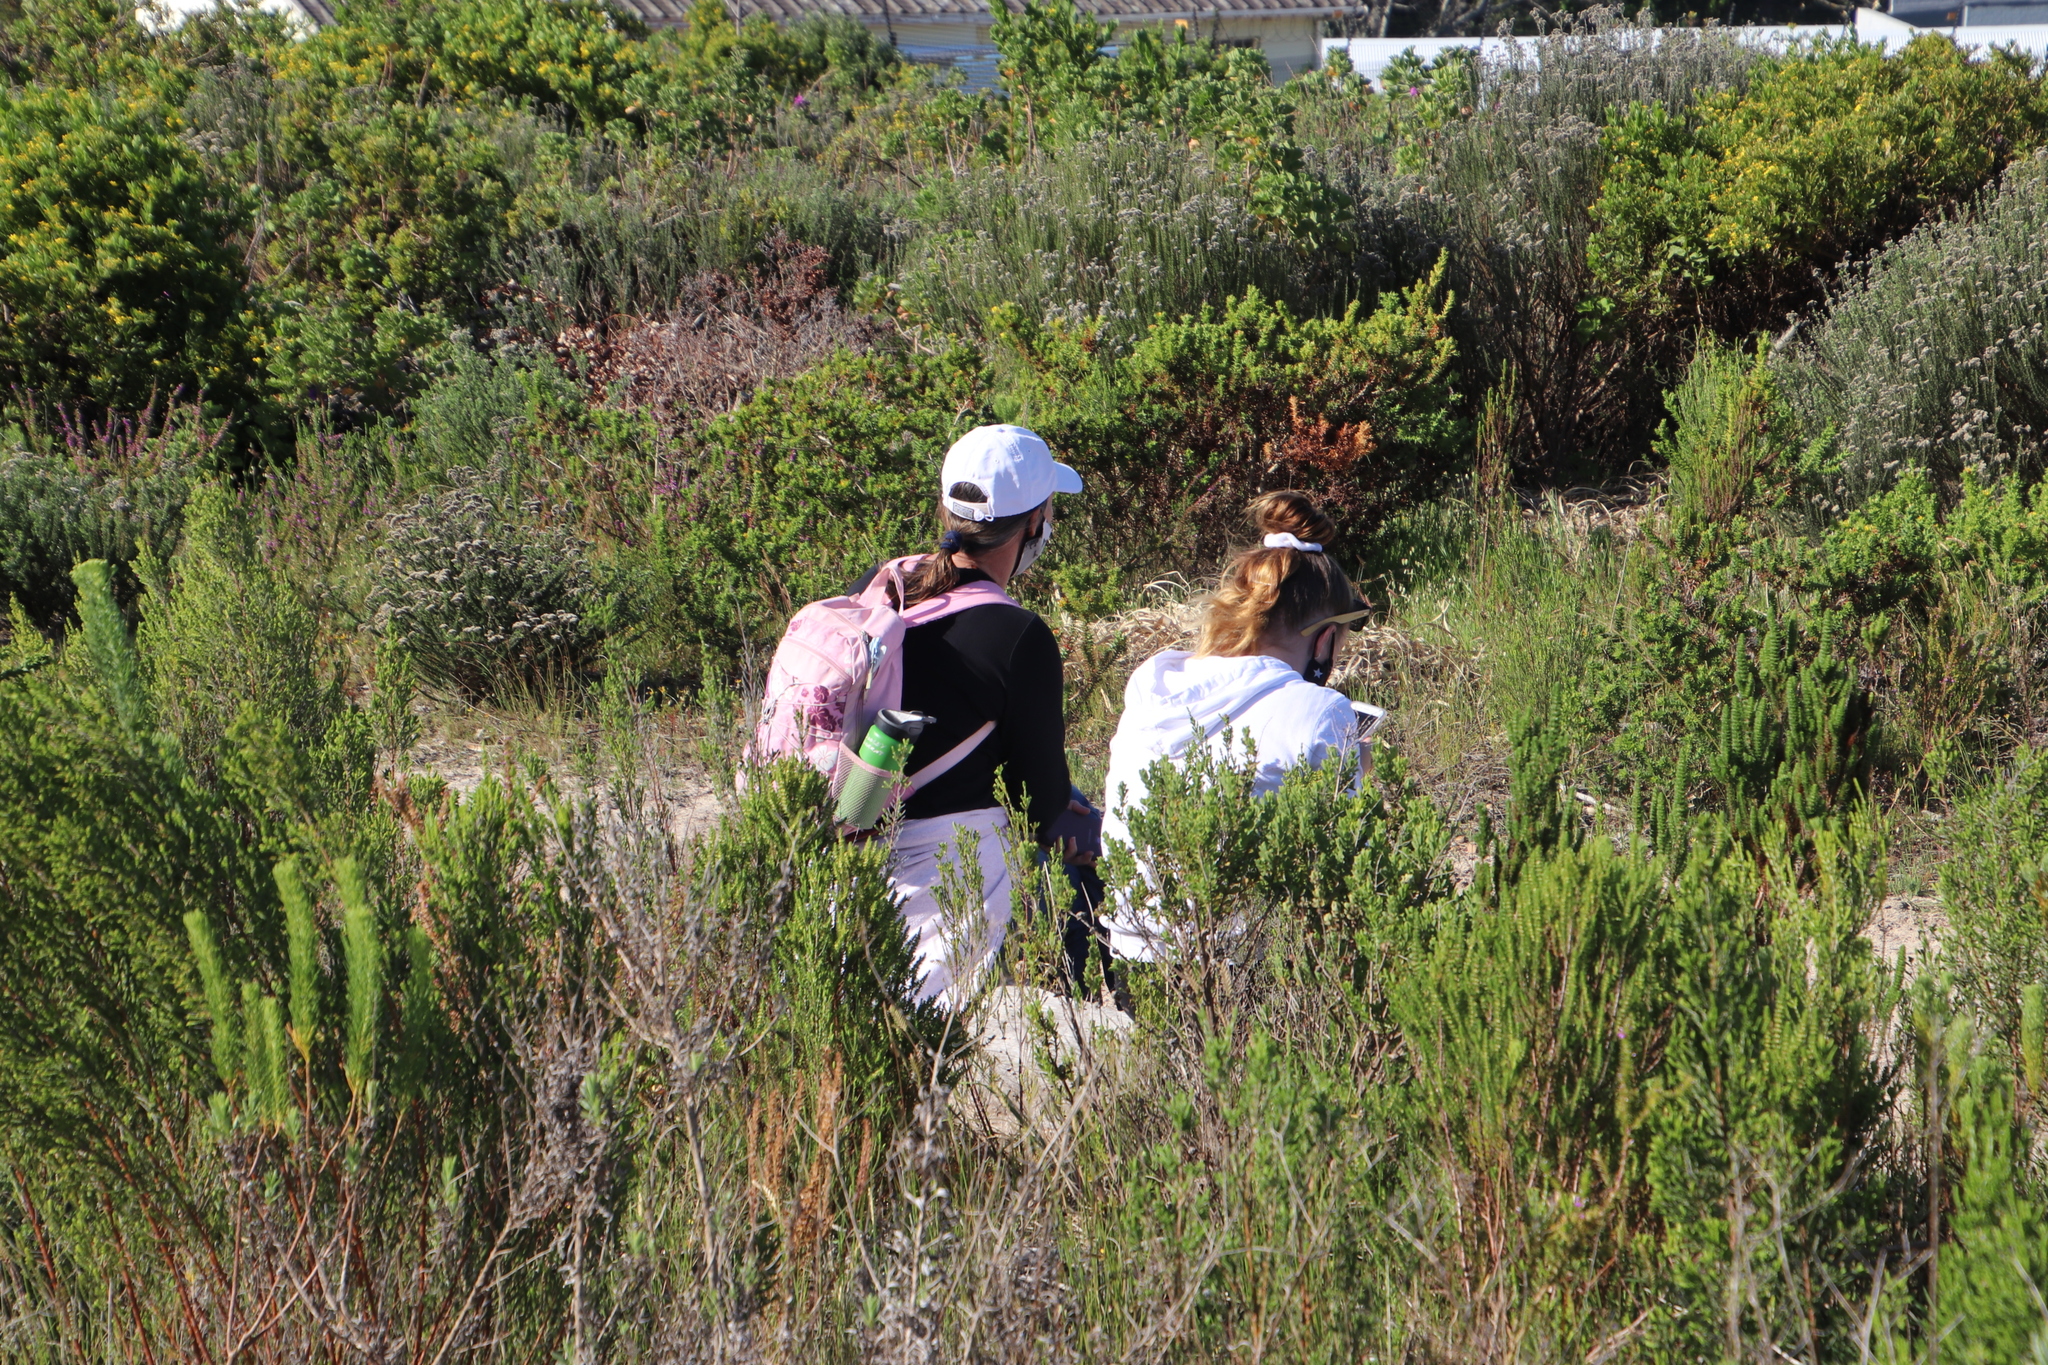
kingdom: Plantae
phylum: Tracheophyta
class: Magnoliopsida
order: Fabales
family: Fabaceae
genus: Aspalathus
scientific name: Aspalathus cordata
